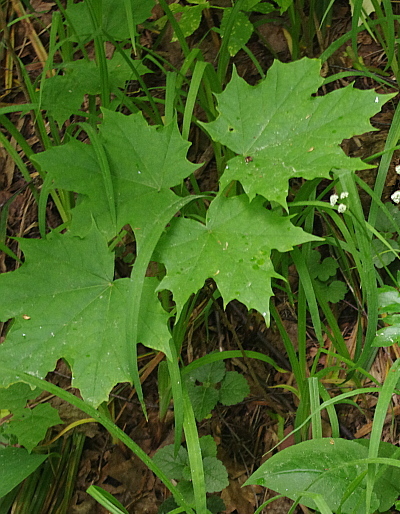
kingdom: Plantae
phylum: Tracheophyta
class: Magnoliopsida
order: Sapindales
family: Sapindaceae
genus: Acer
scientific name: Acer platanoides
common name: Norway maple
